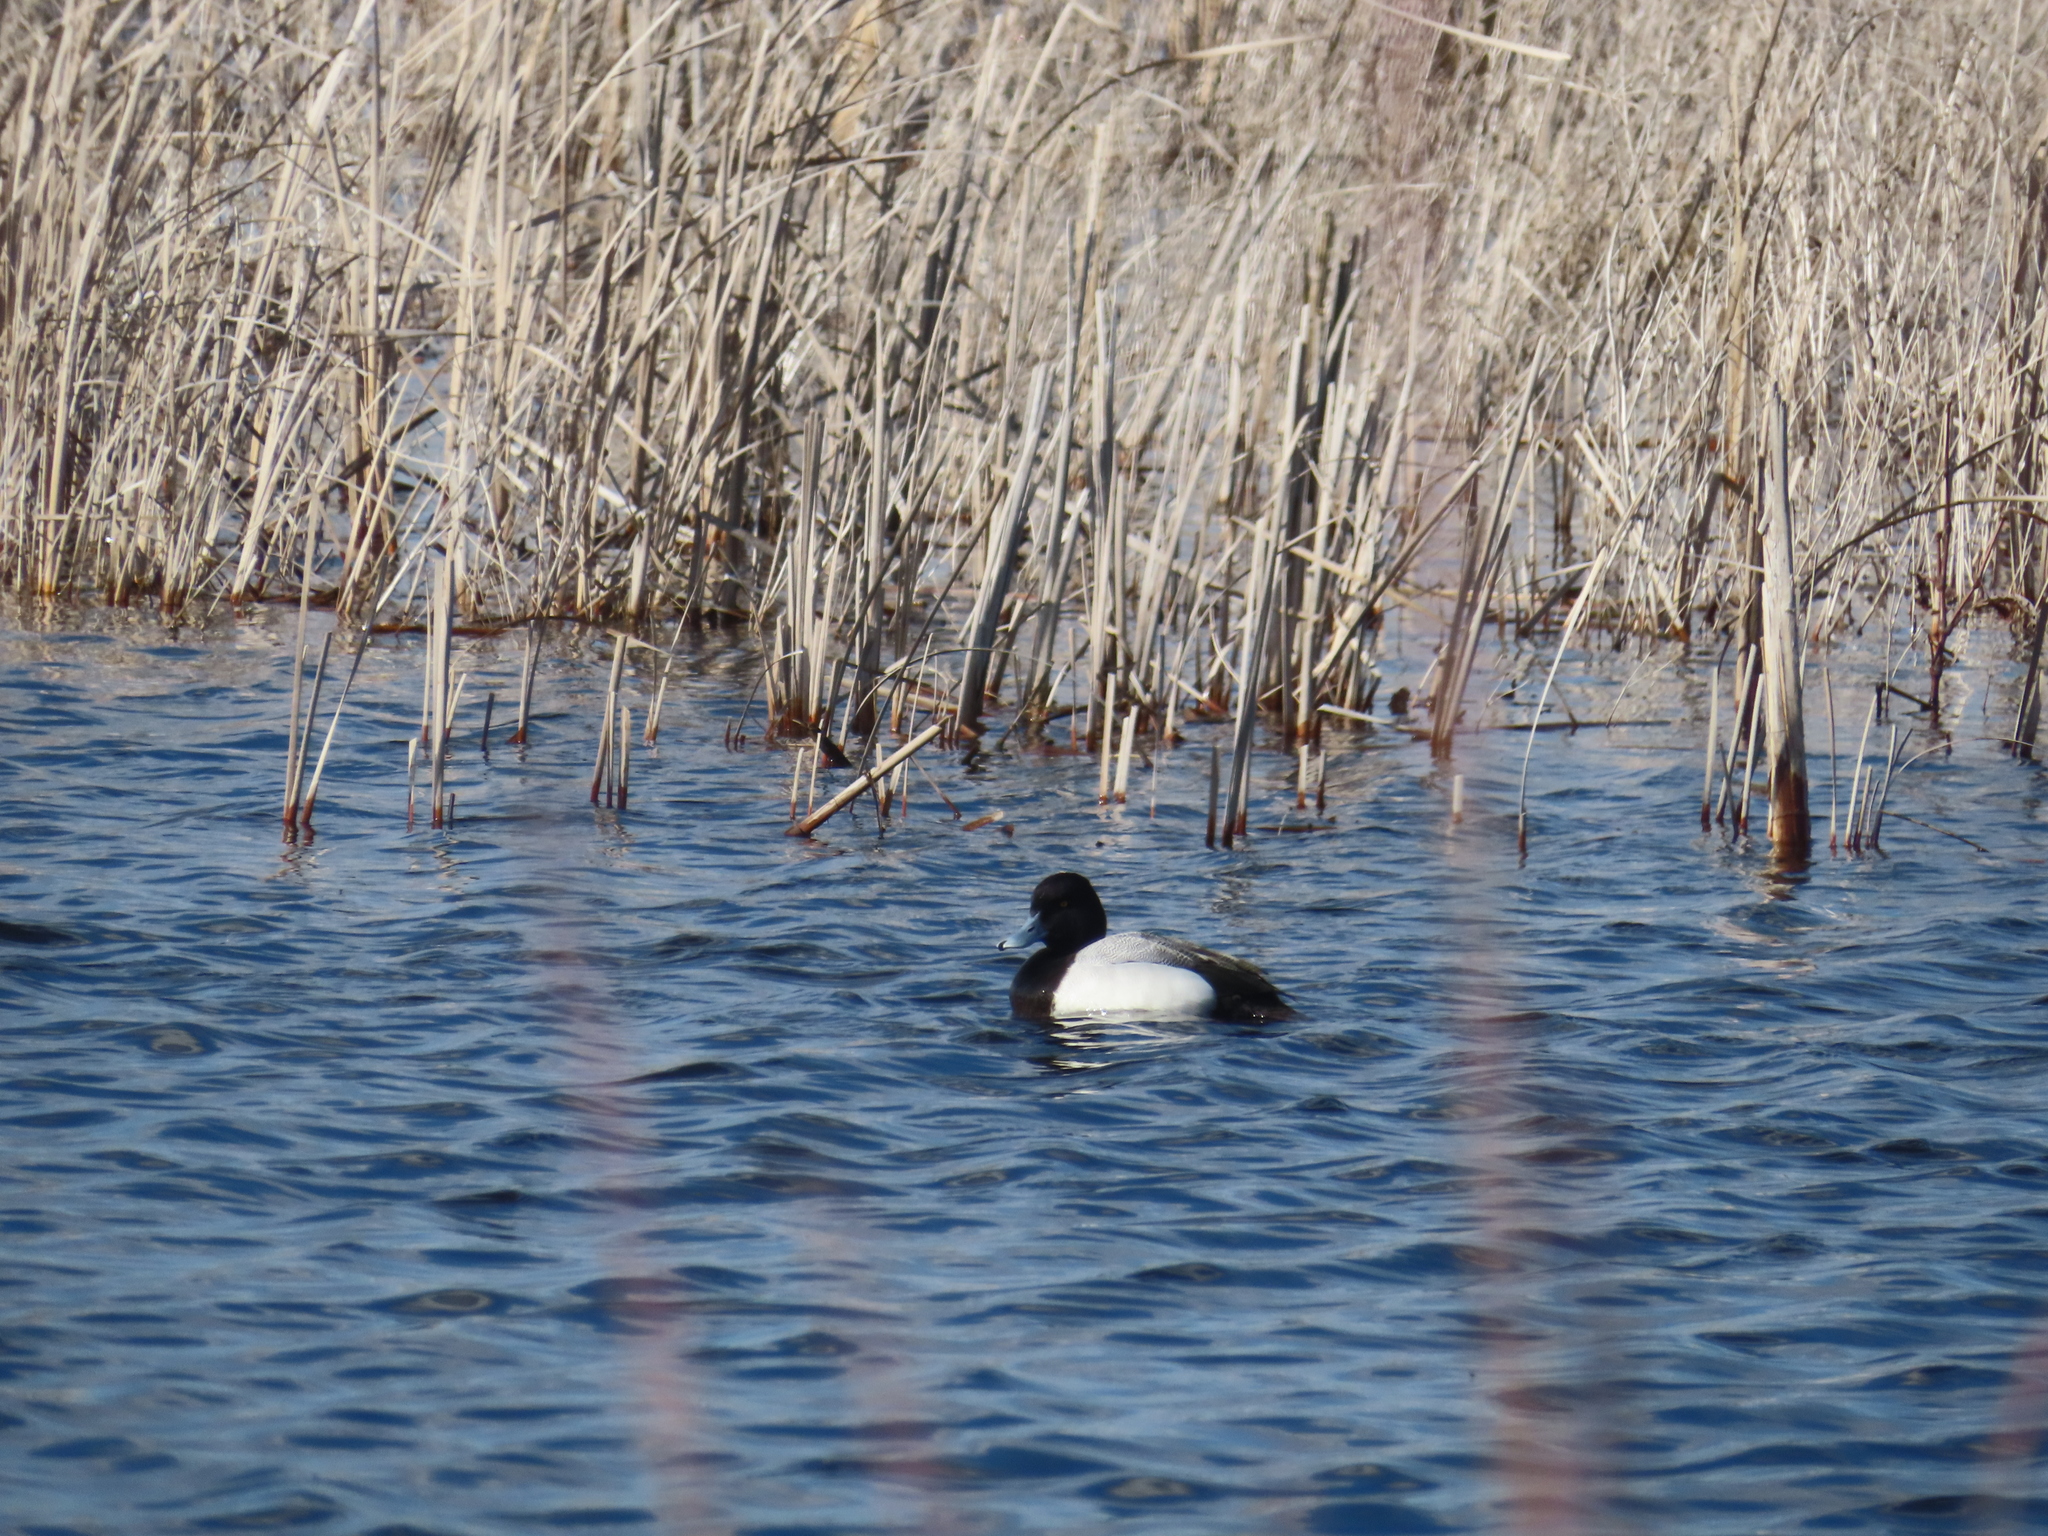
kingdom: Animalia
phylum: Chordata
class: Aves
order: Anseriformes
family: Anatidae
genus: Aythya
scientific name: Aythya affinis
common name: Lesser scaup
